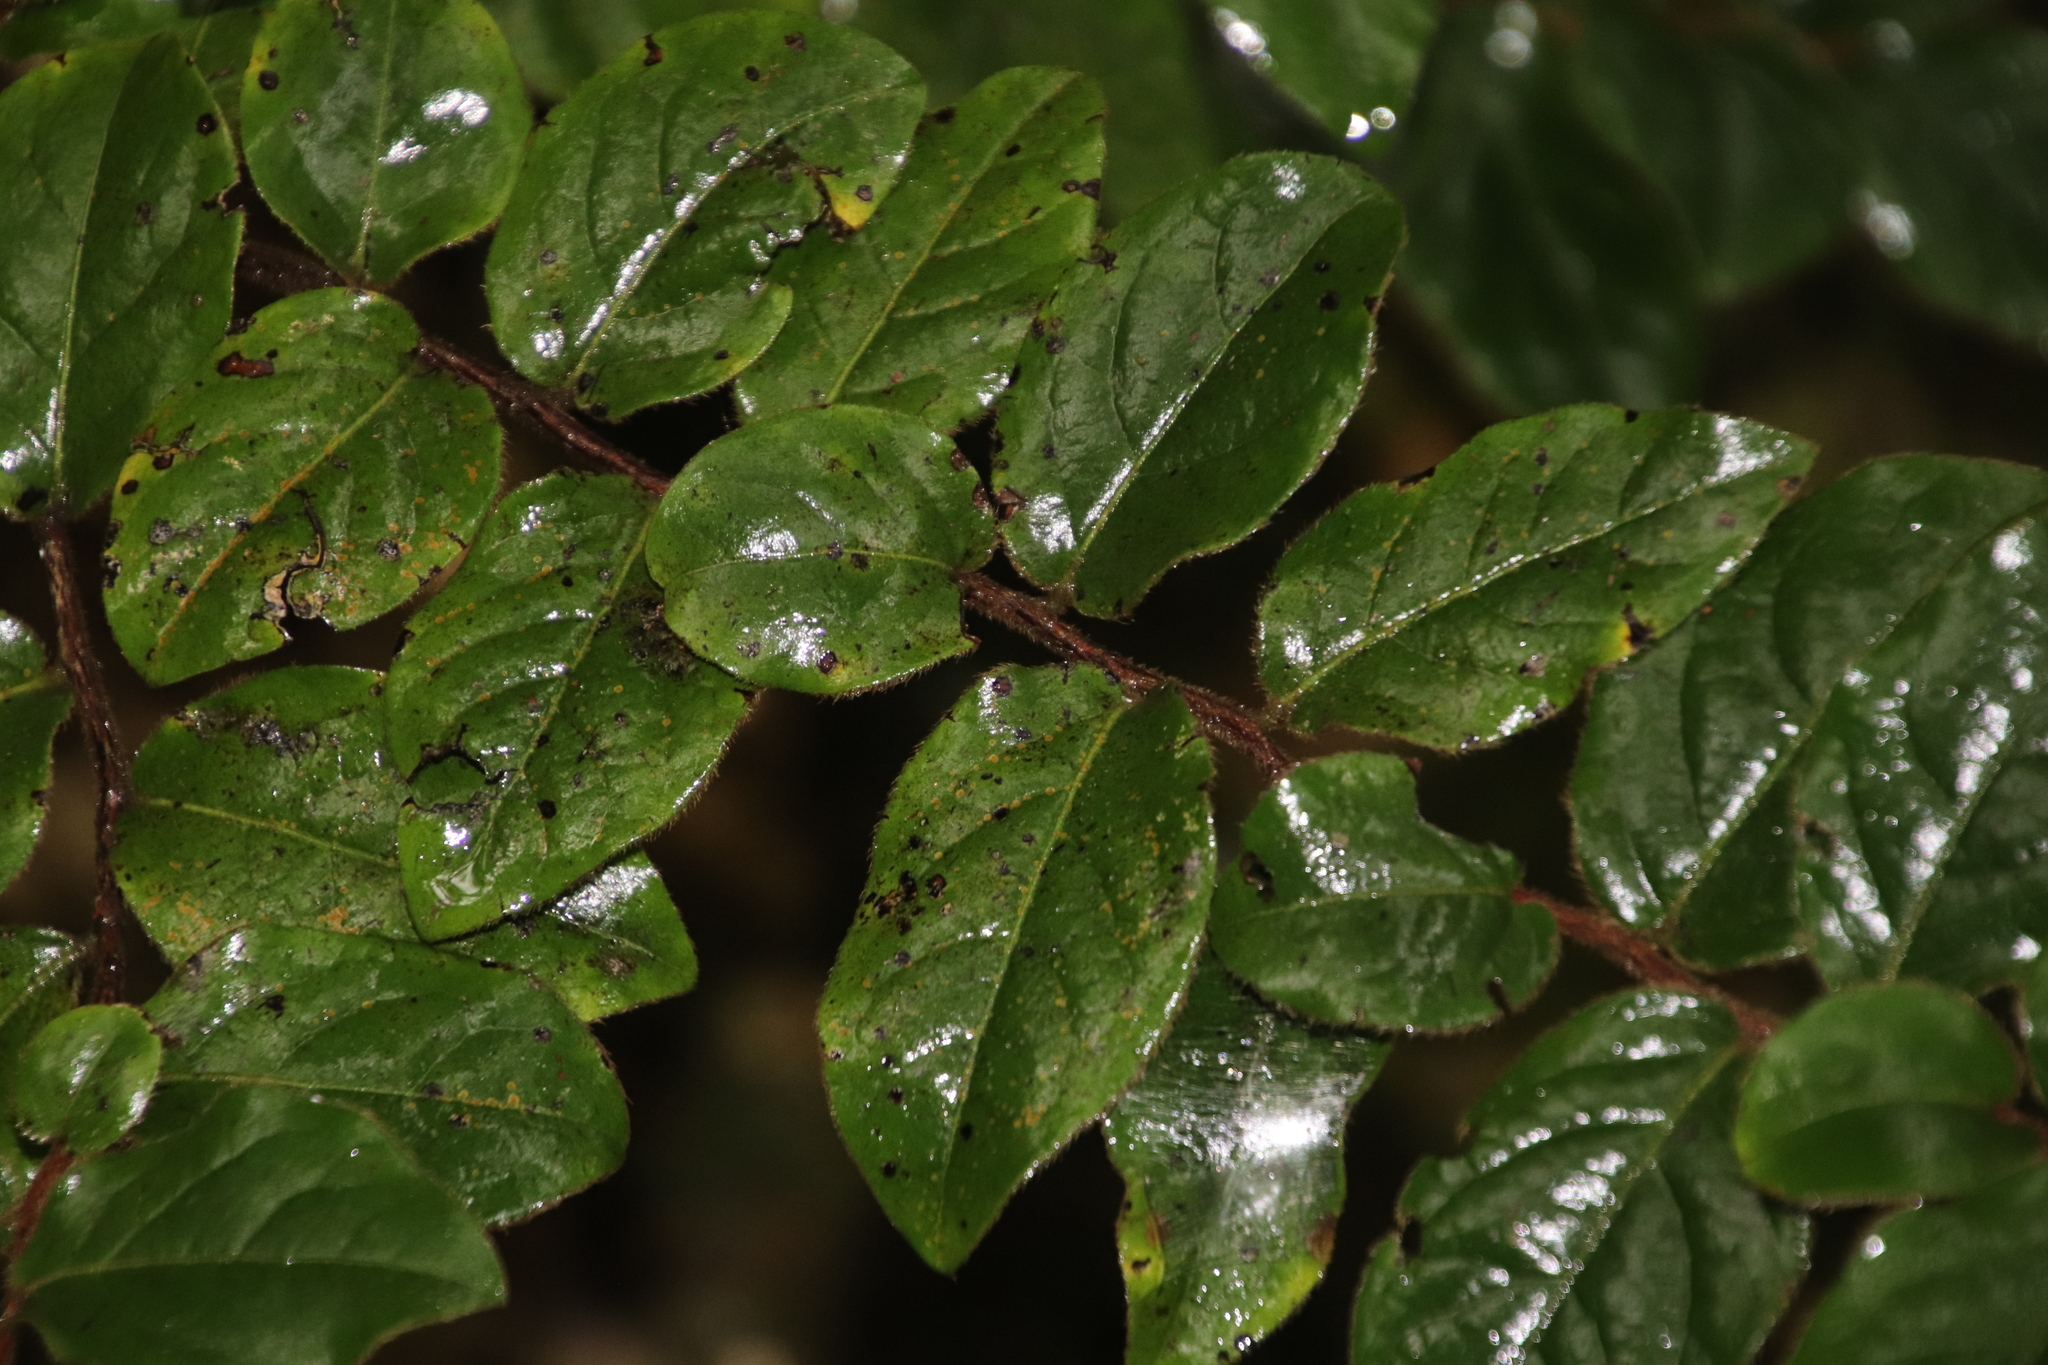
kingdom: Plantae
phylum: Tracheophyta
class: Magnoliopsida
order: Ericales
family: Ebenaceae
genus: Diospyros
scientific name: Diospyros whyteana
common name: Bladder-nut
